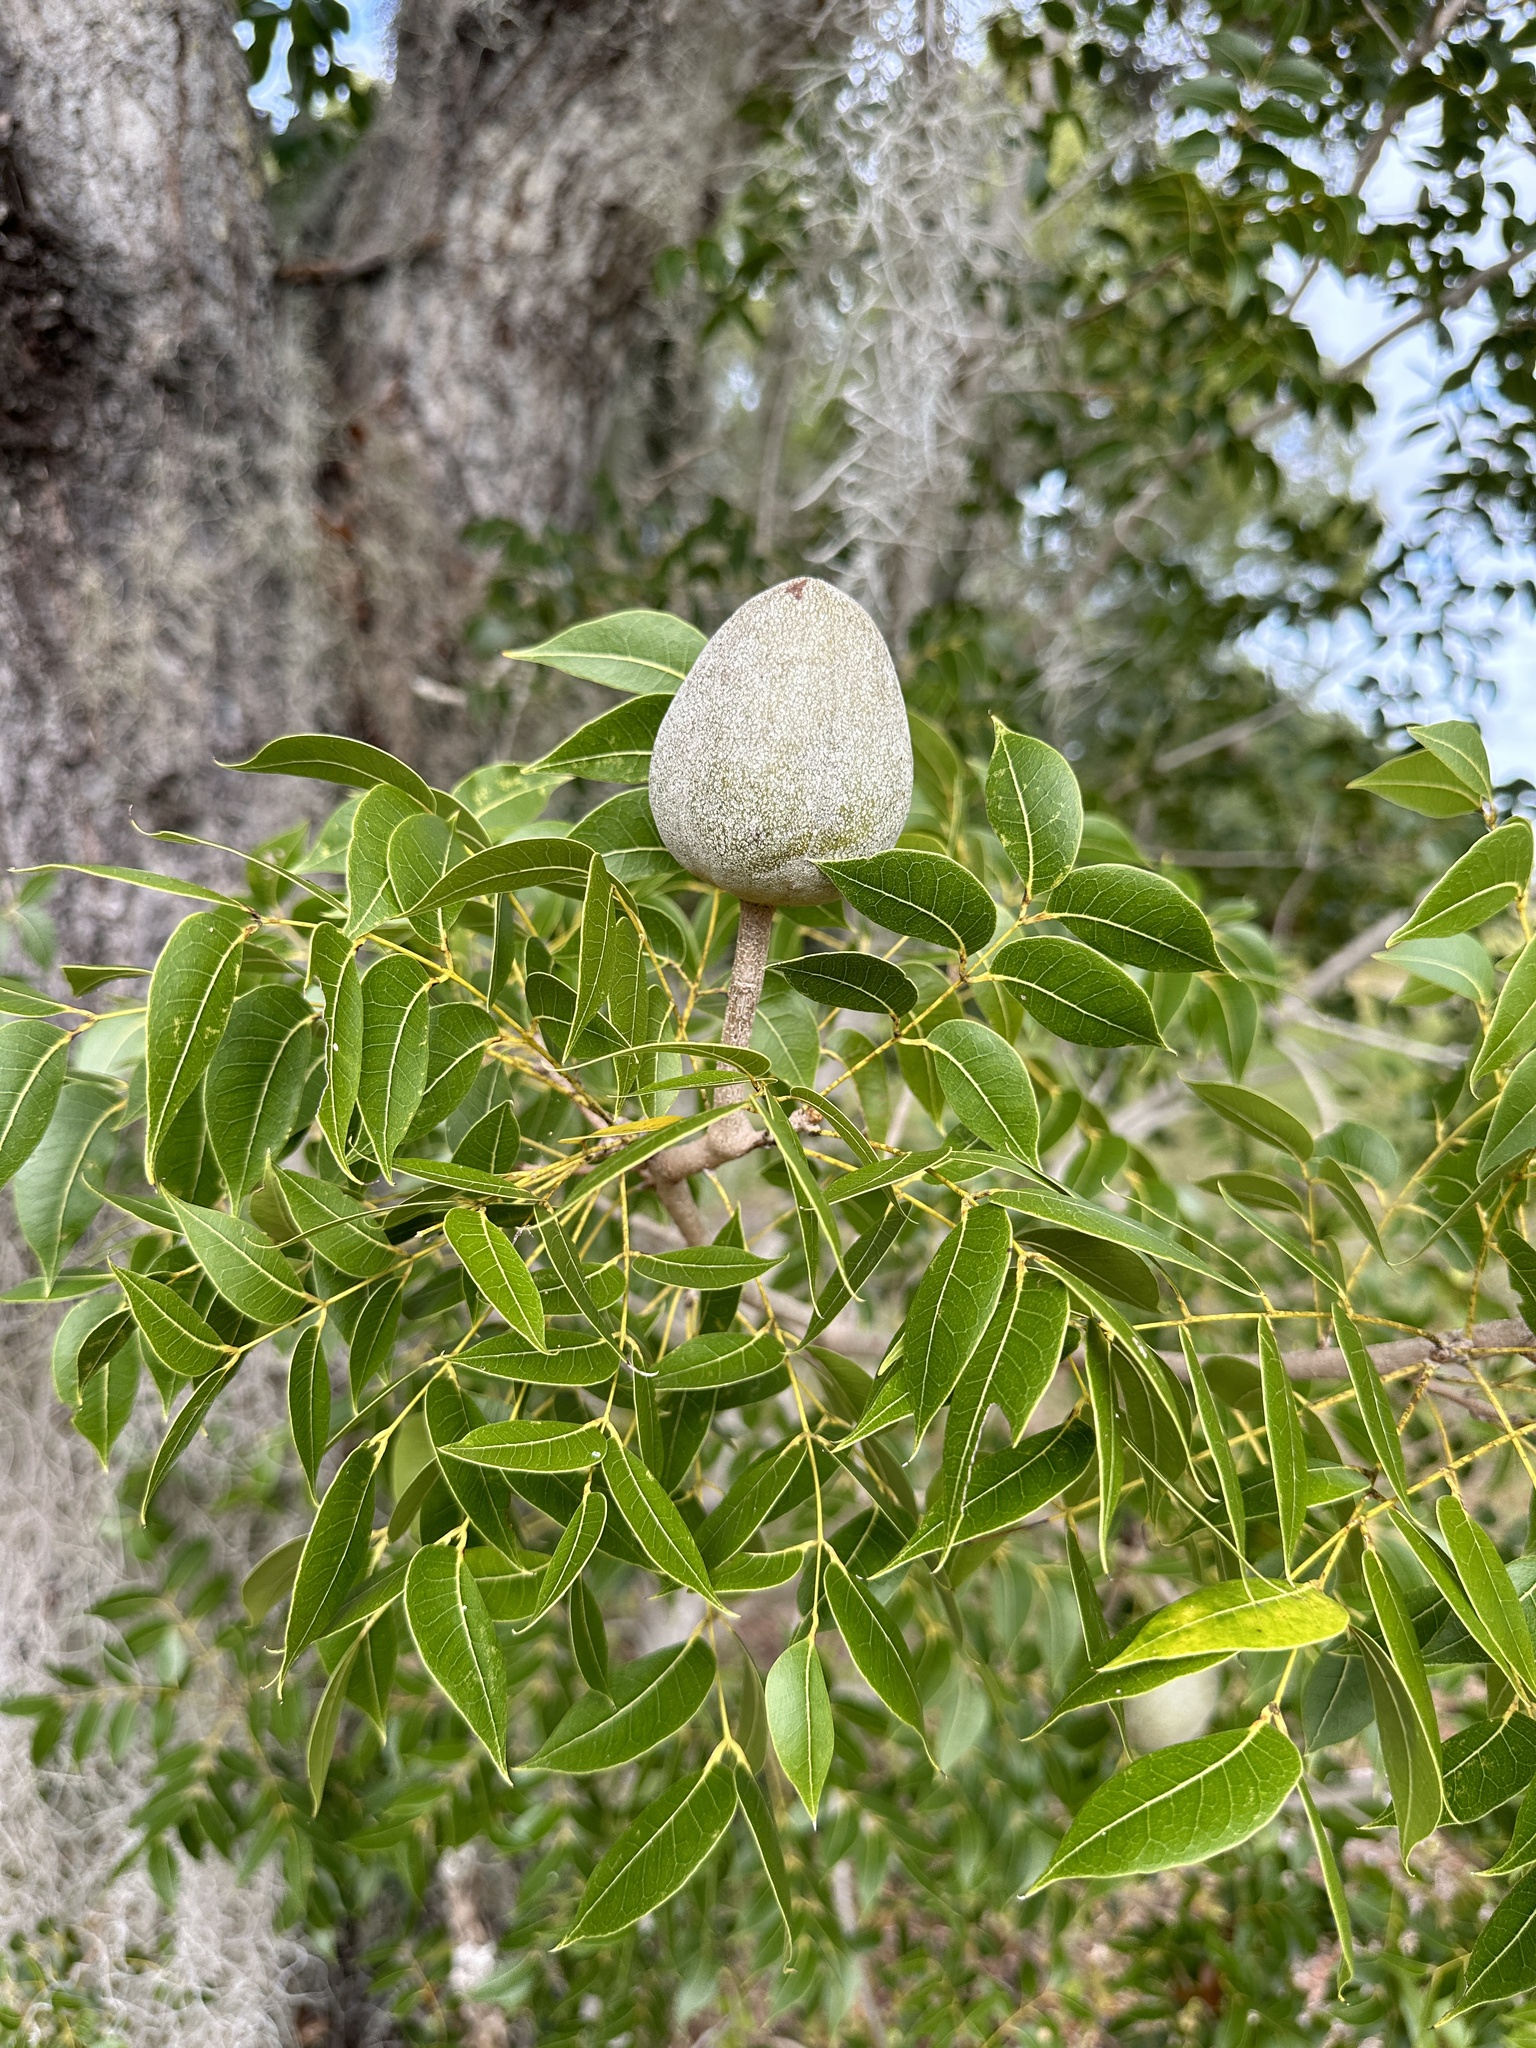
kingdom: Plantae
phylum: Tracheophyta
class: Magnoliopsida
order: Sapindales
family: Meliaceae
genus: Swietenia
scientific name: Swietenia mahagoni
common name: West indian mahogany
